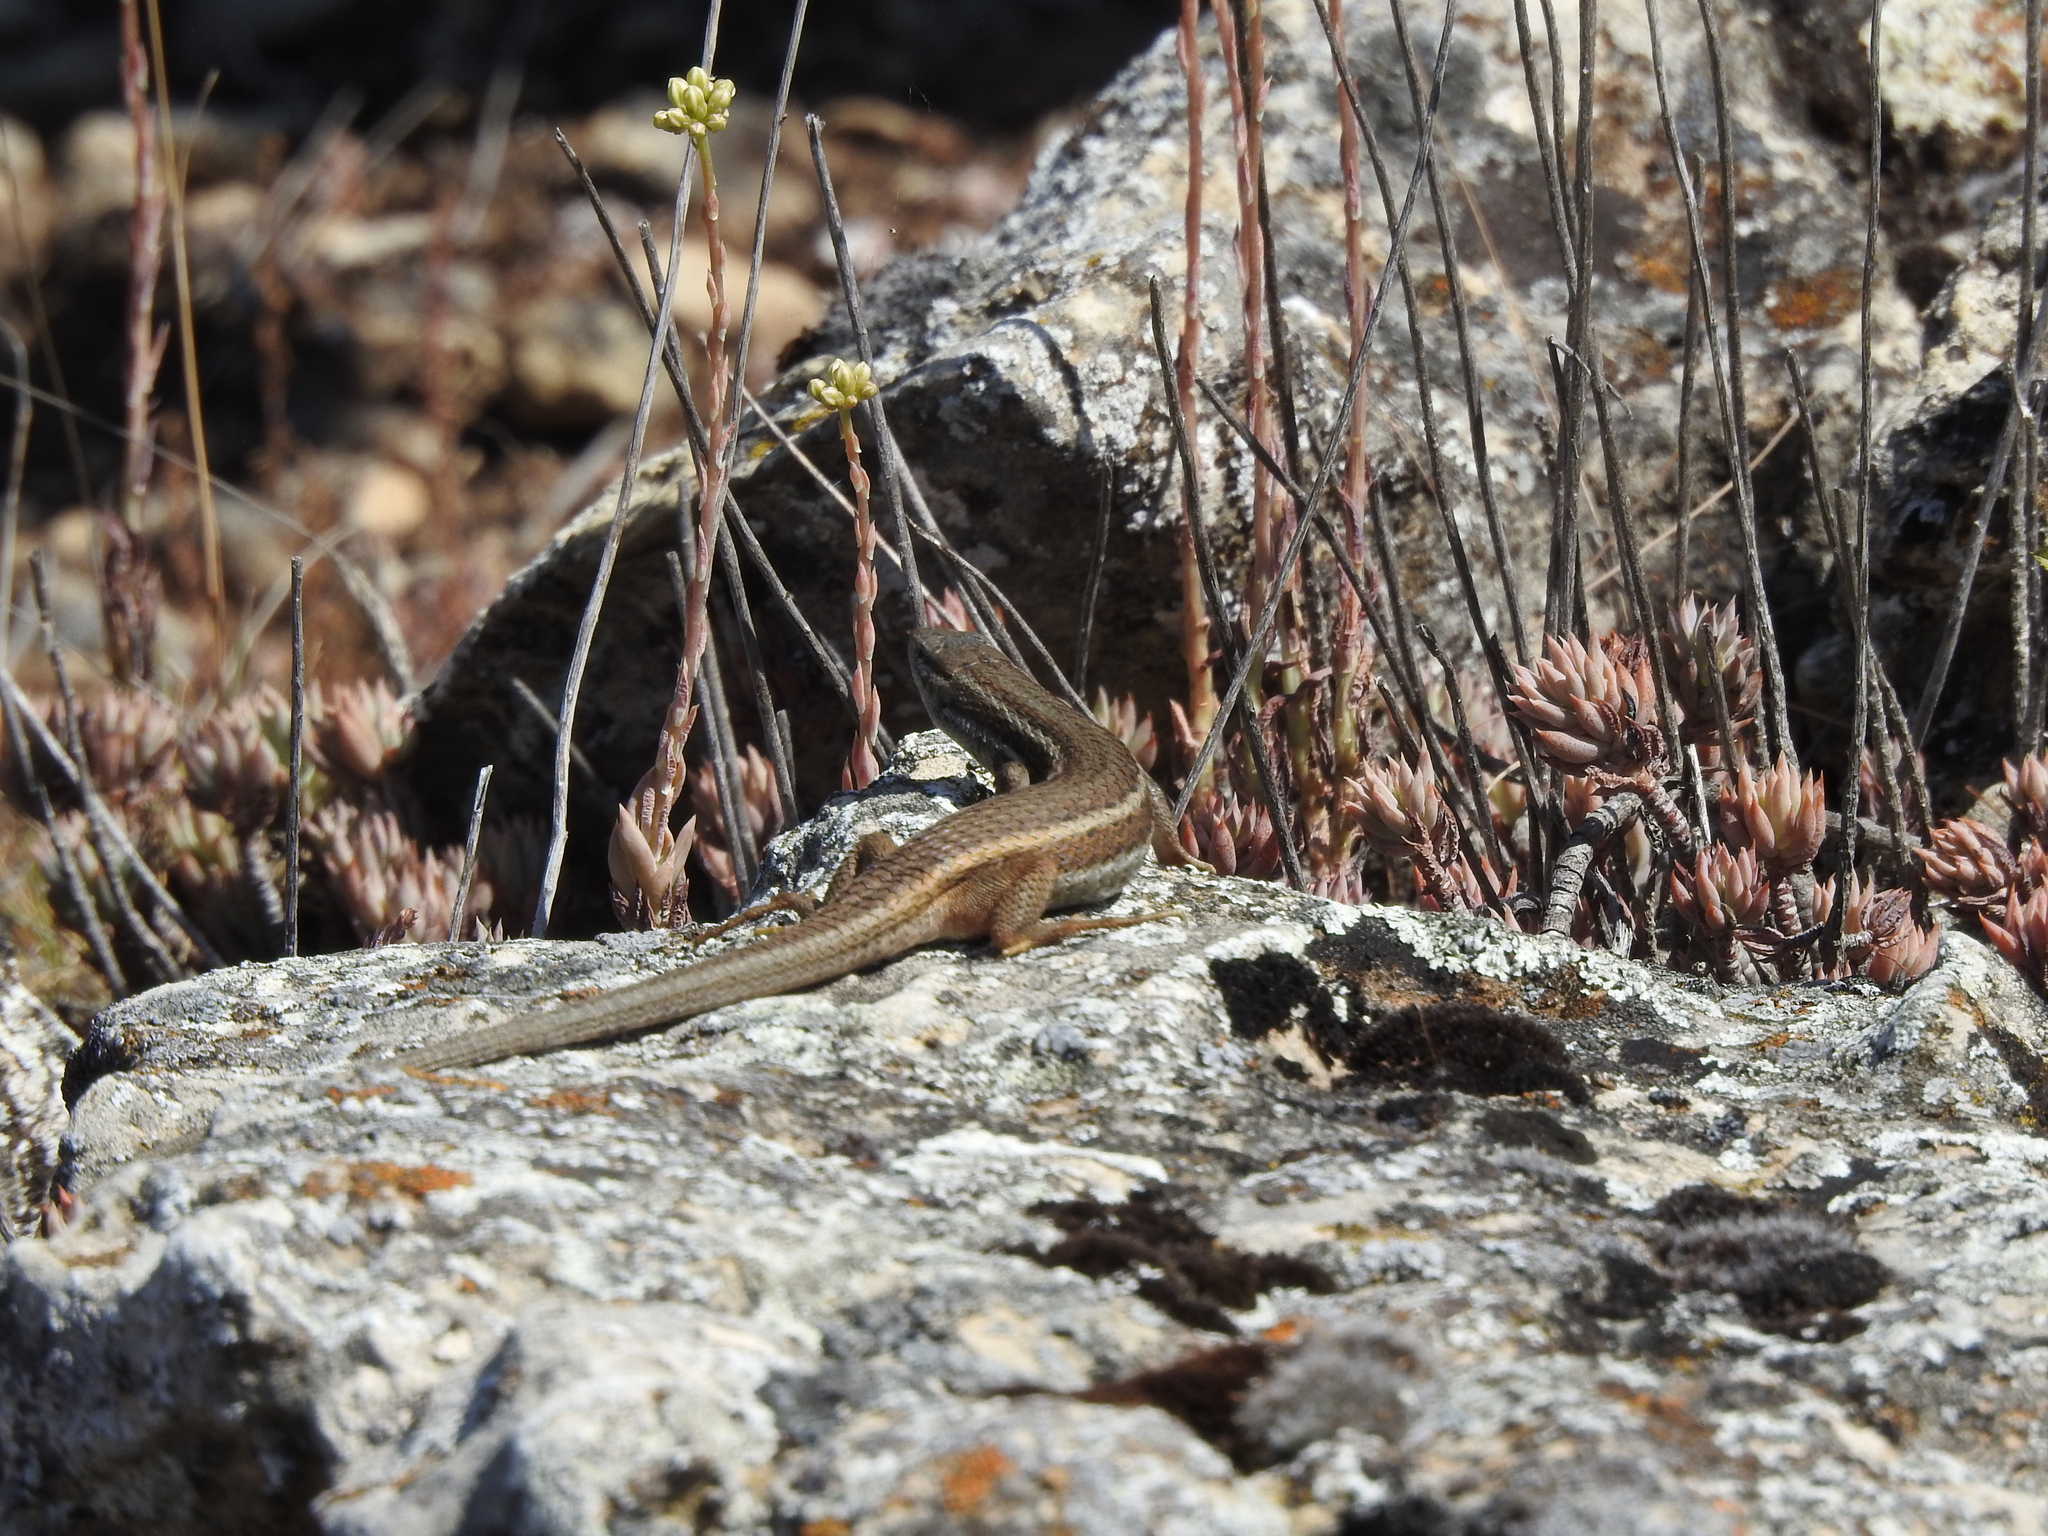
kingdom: Animalia
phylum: Chordata
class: Squamata
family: Lacertidae
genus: Psammodromus
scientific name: Psammodromus algirus
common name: Algerian psammodromus
